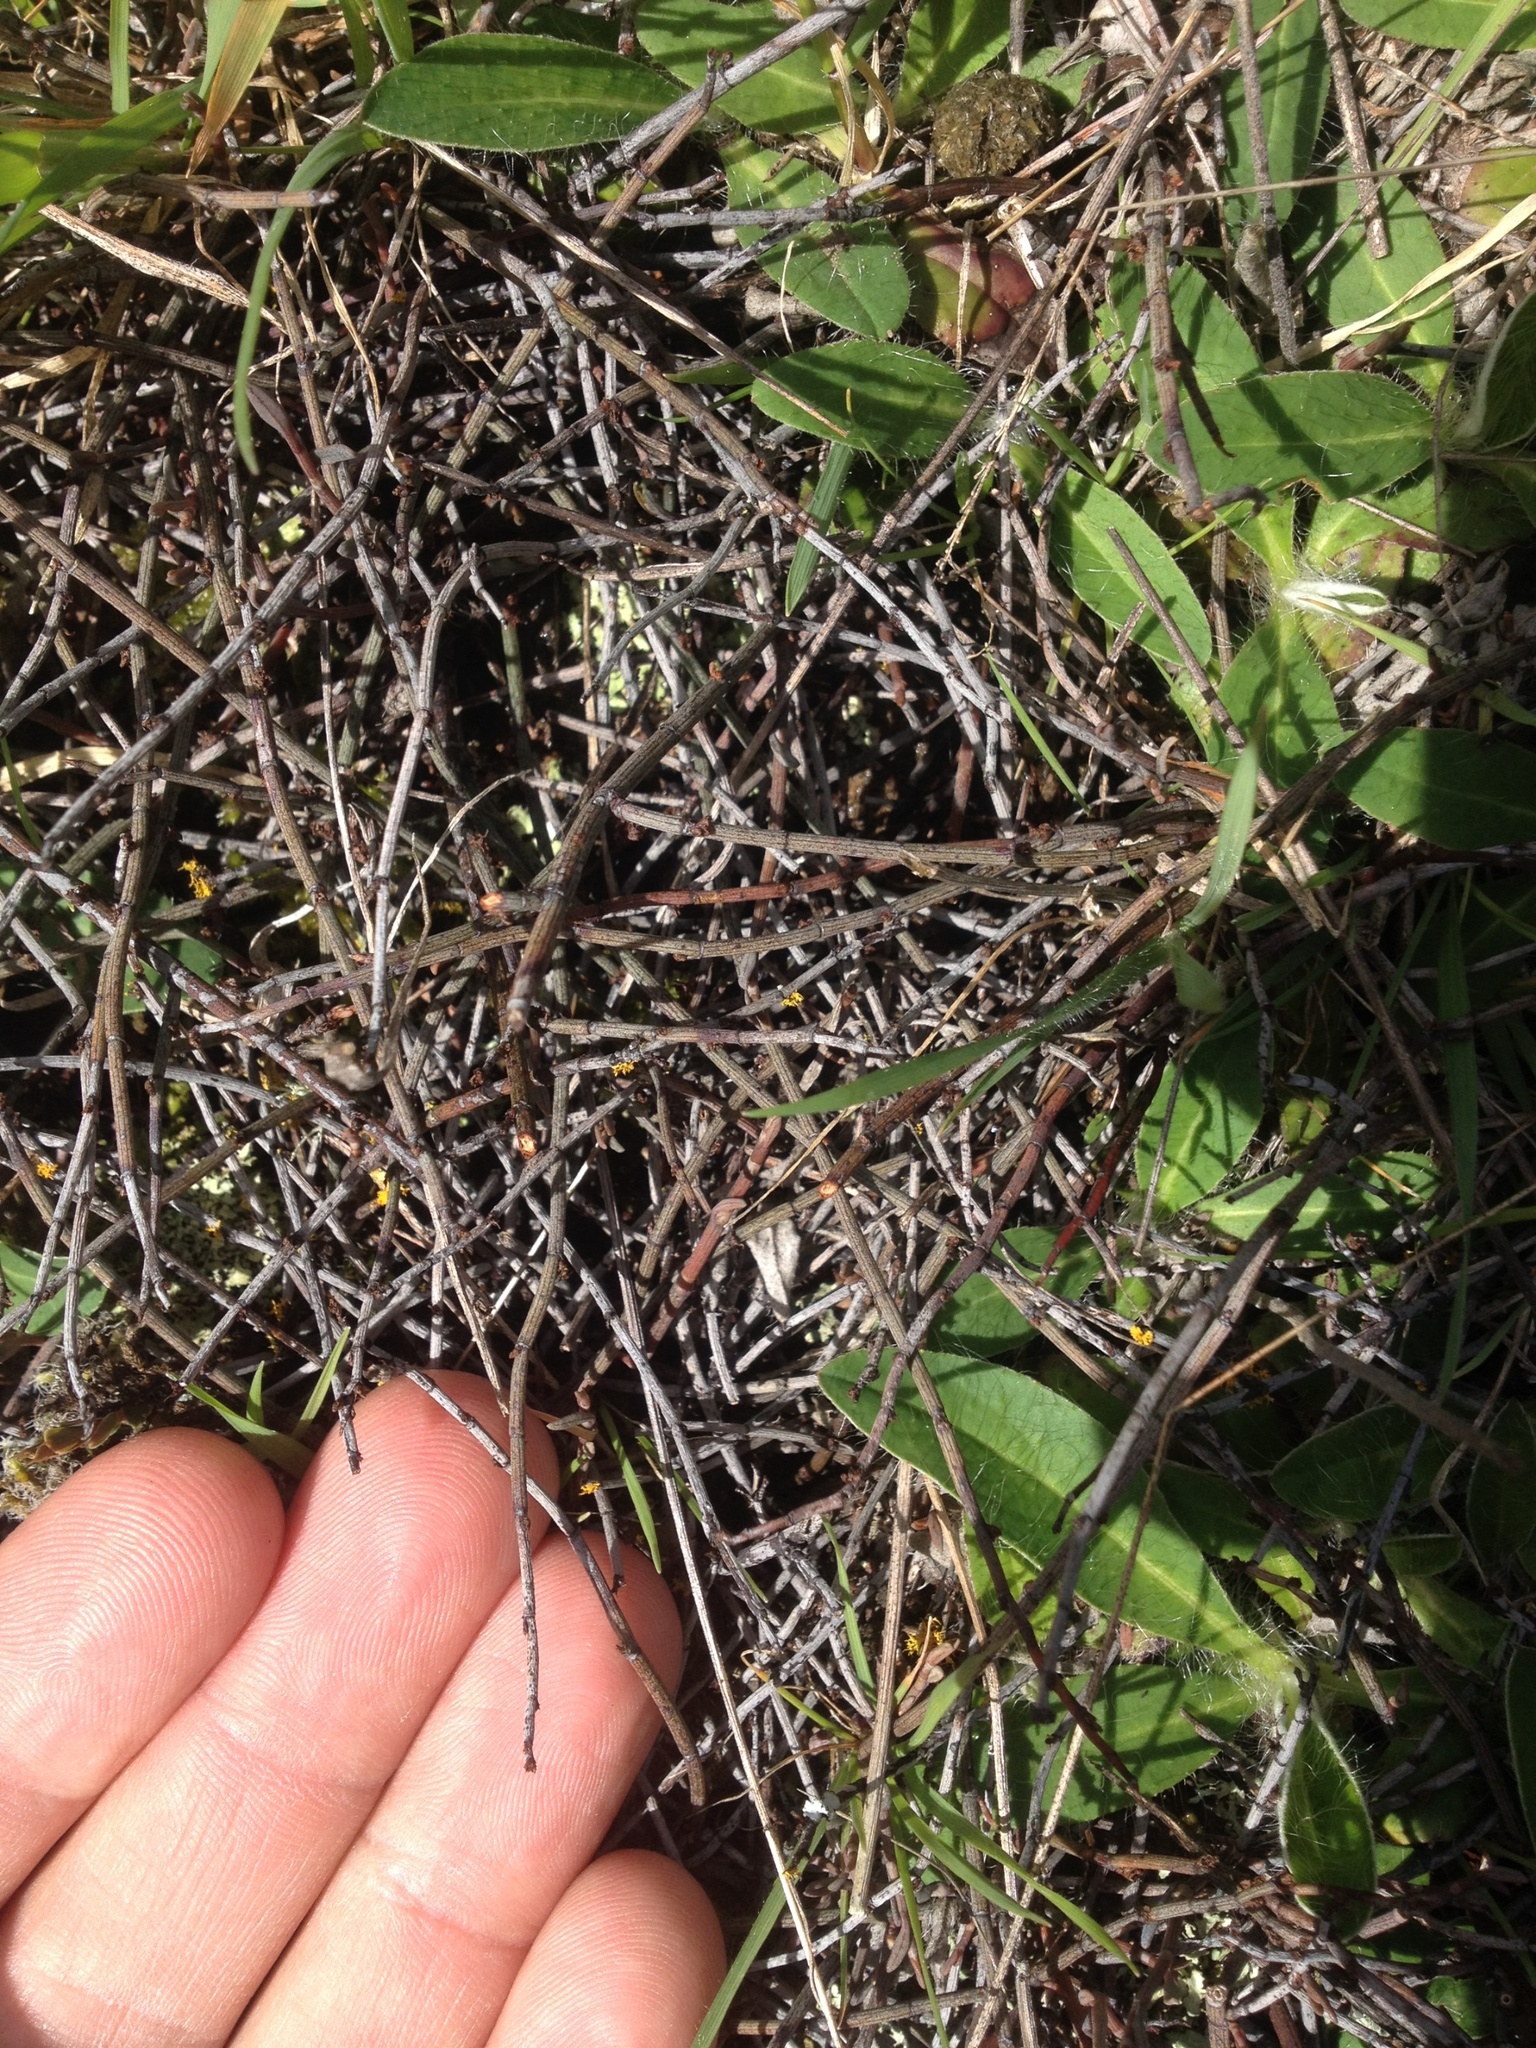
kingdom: Plantae
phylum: Tracheophyta
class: Magnoliopsida
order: Caryophyllales
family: Polygonaceae
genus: Muehlenbeckia
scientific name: Muehlenbeckia ephedroides
